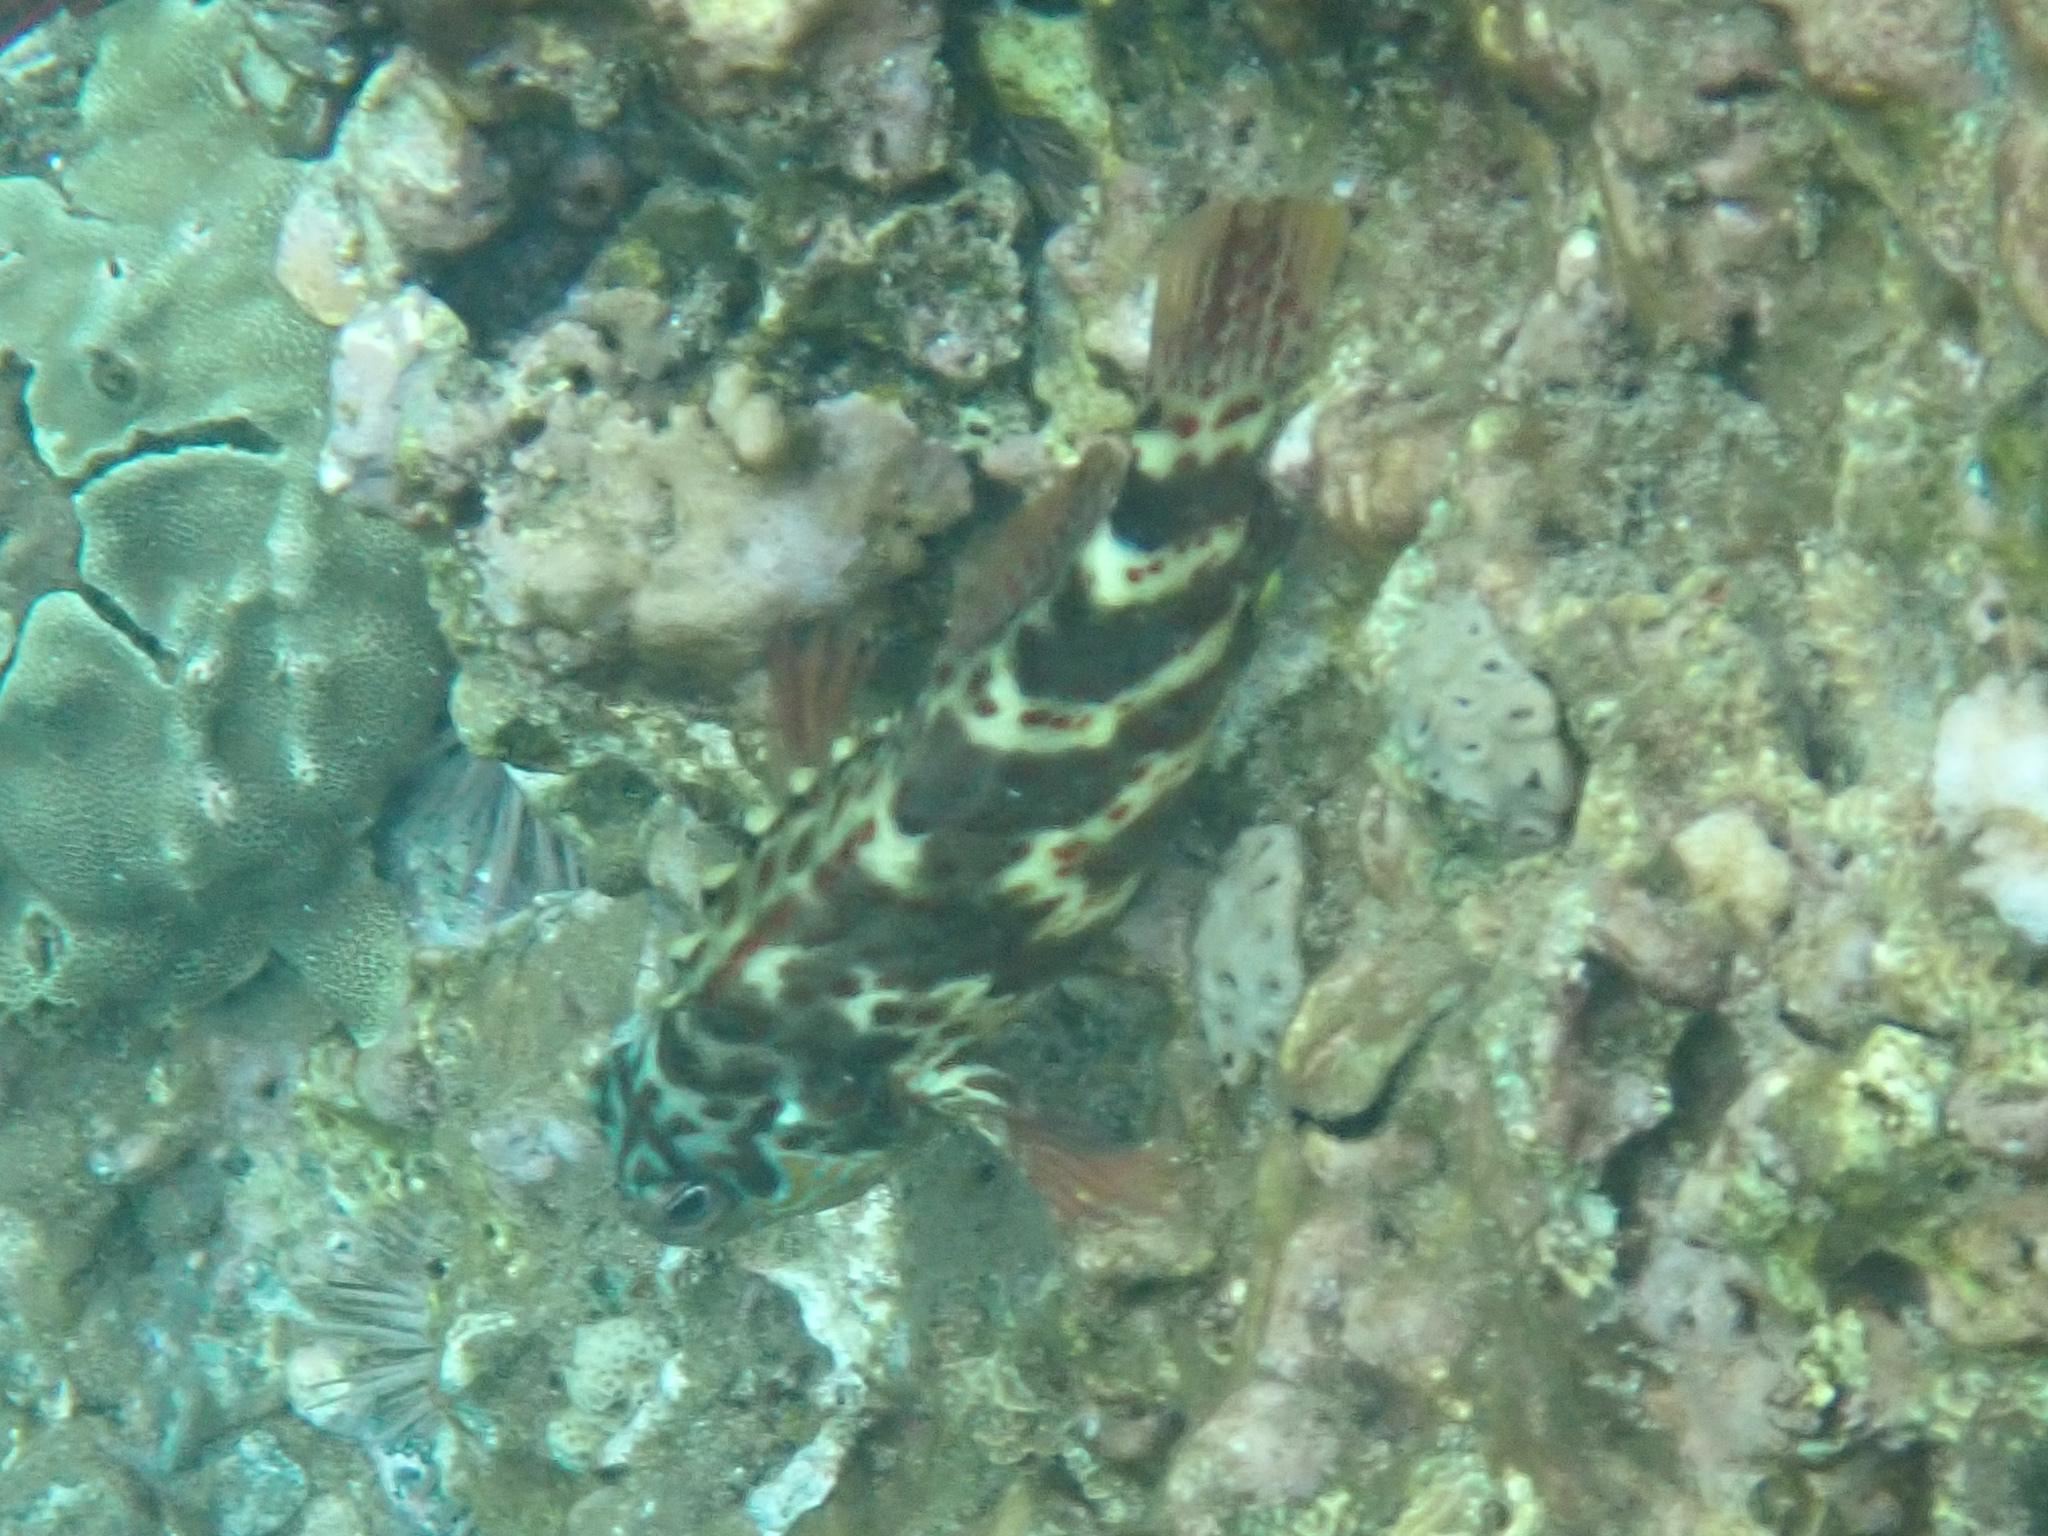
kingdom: Animalia
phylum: Chordata
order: Perciformes
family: Cirrhitidae
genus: Cirrhitus
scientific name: Cirrhitus pinnulatus
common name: Stocky hawkfish
